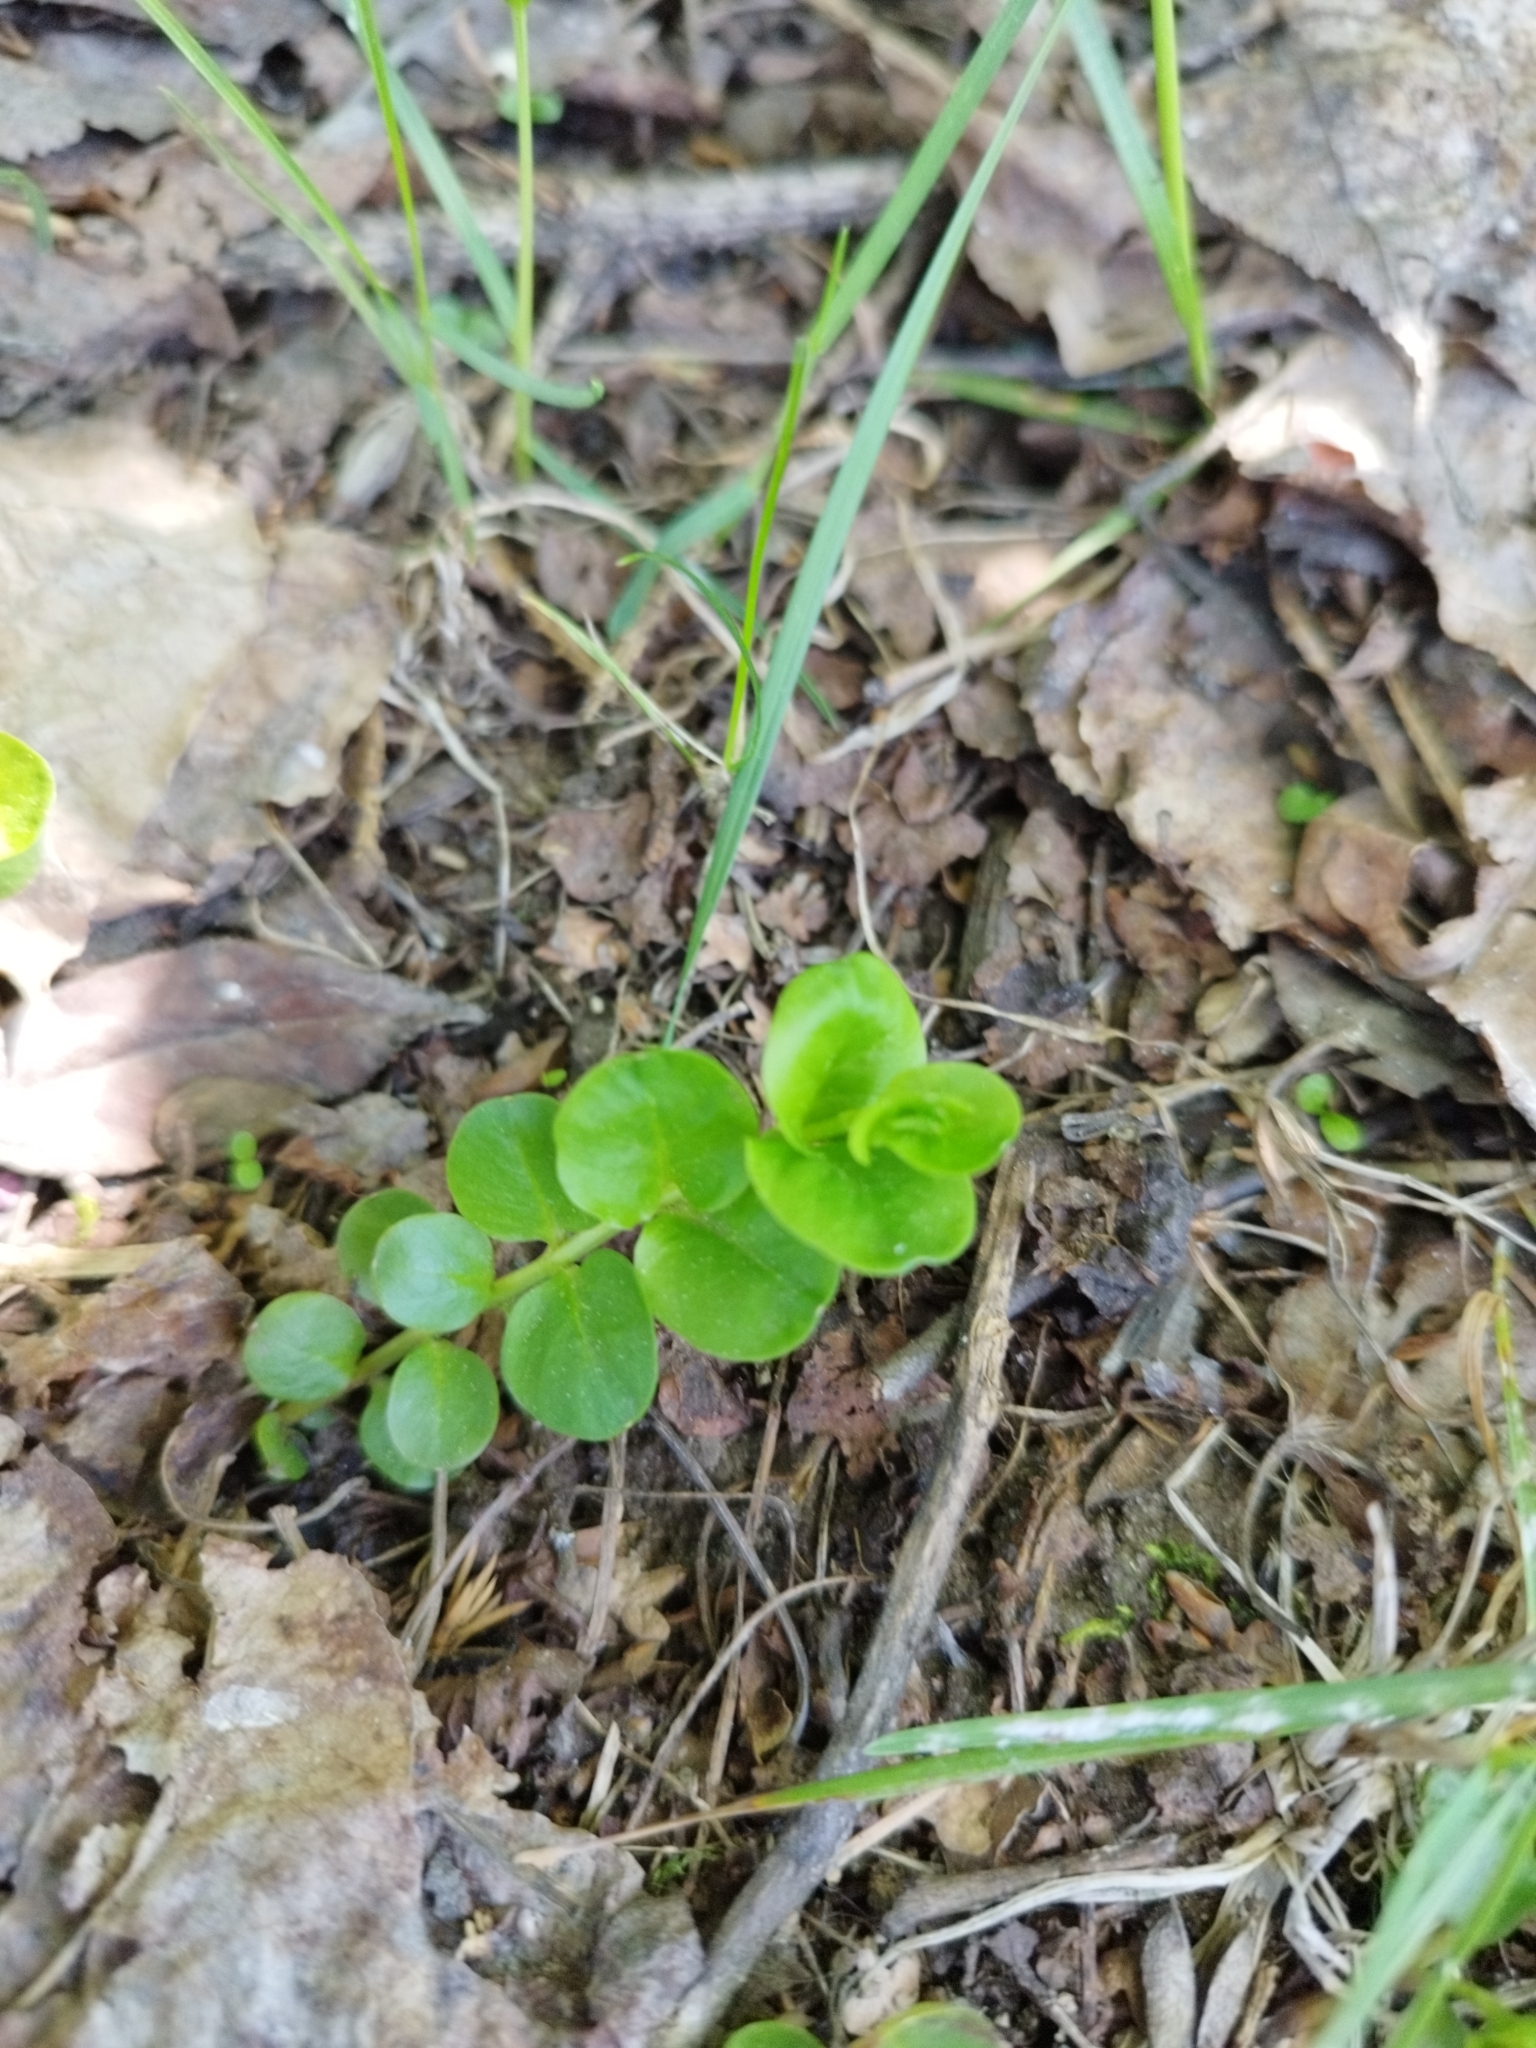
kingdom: Plantae
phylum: Tracheophyta
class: Magnoliopsida
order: Ericales
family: Primulaceae
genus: Lysimachia
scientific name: Lysimachia nummularia
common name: Moneywort
